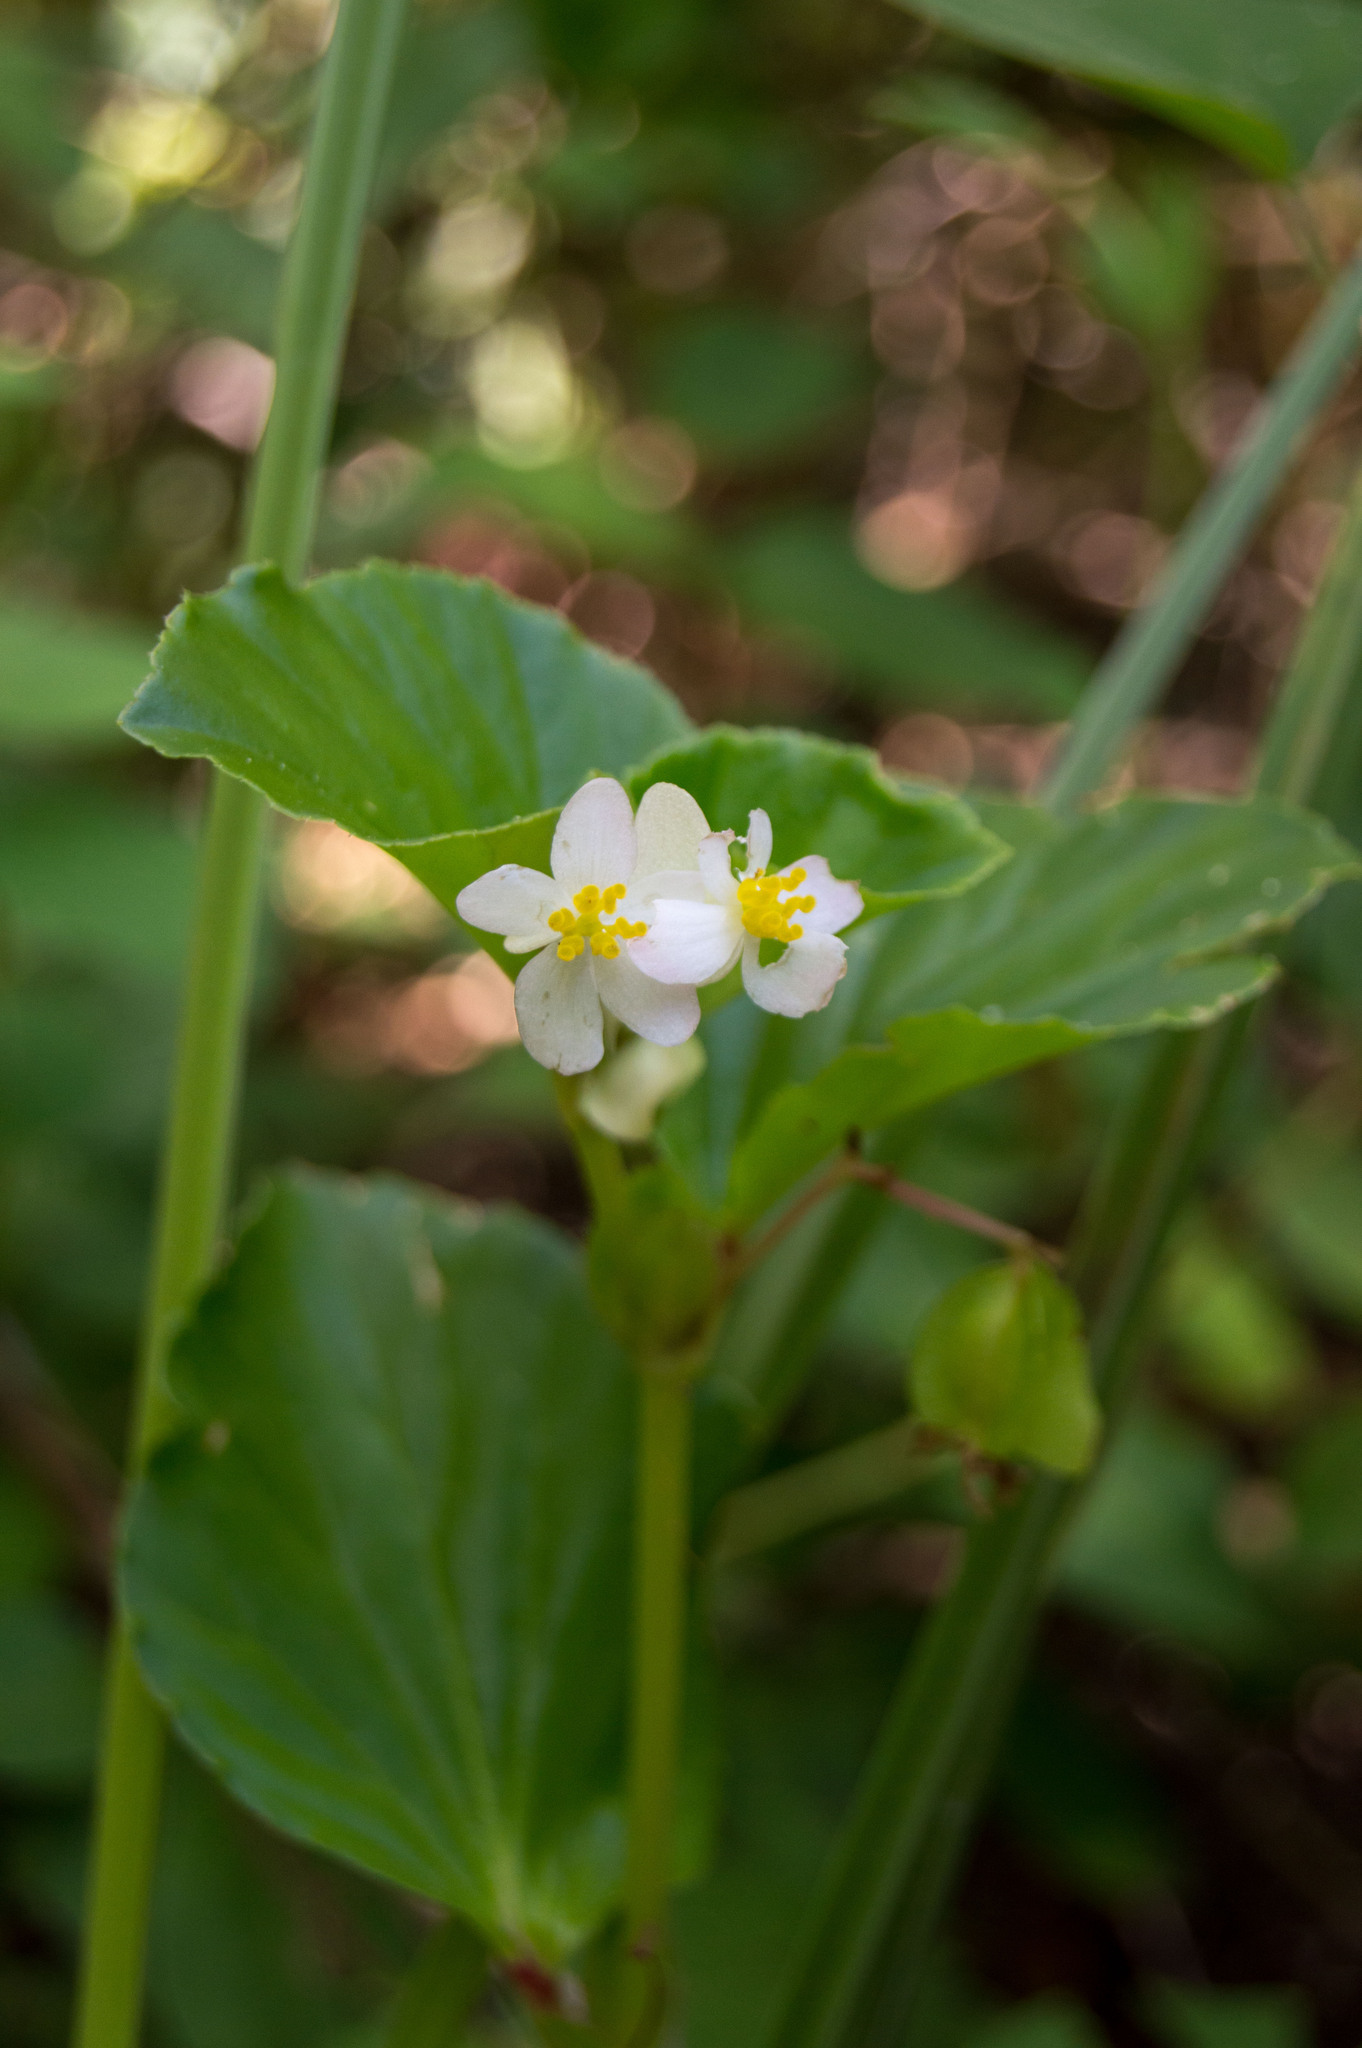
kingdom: Plantae
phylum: Tracheophyta
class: Magnoliopsida
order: Cucurbitales
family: Begoniaceae
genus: Begonia
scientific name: Begonia cucullata
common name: Clubbed begonia
